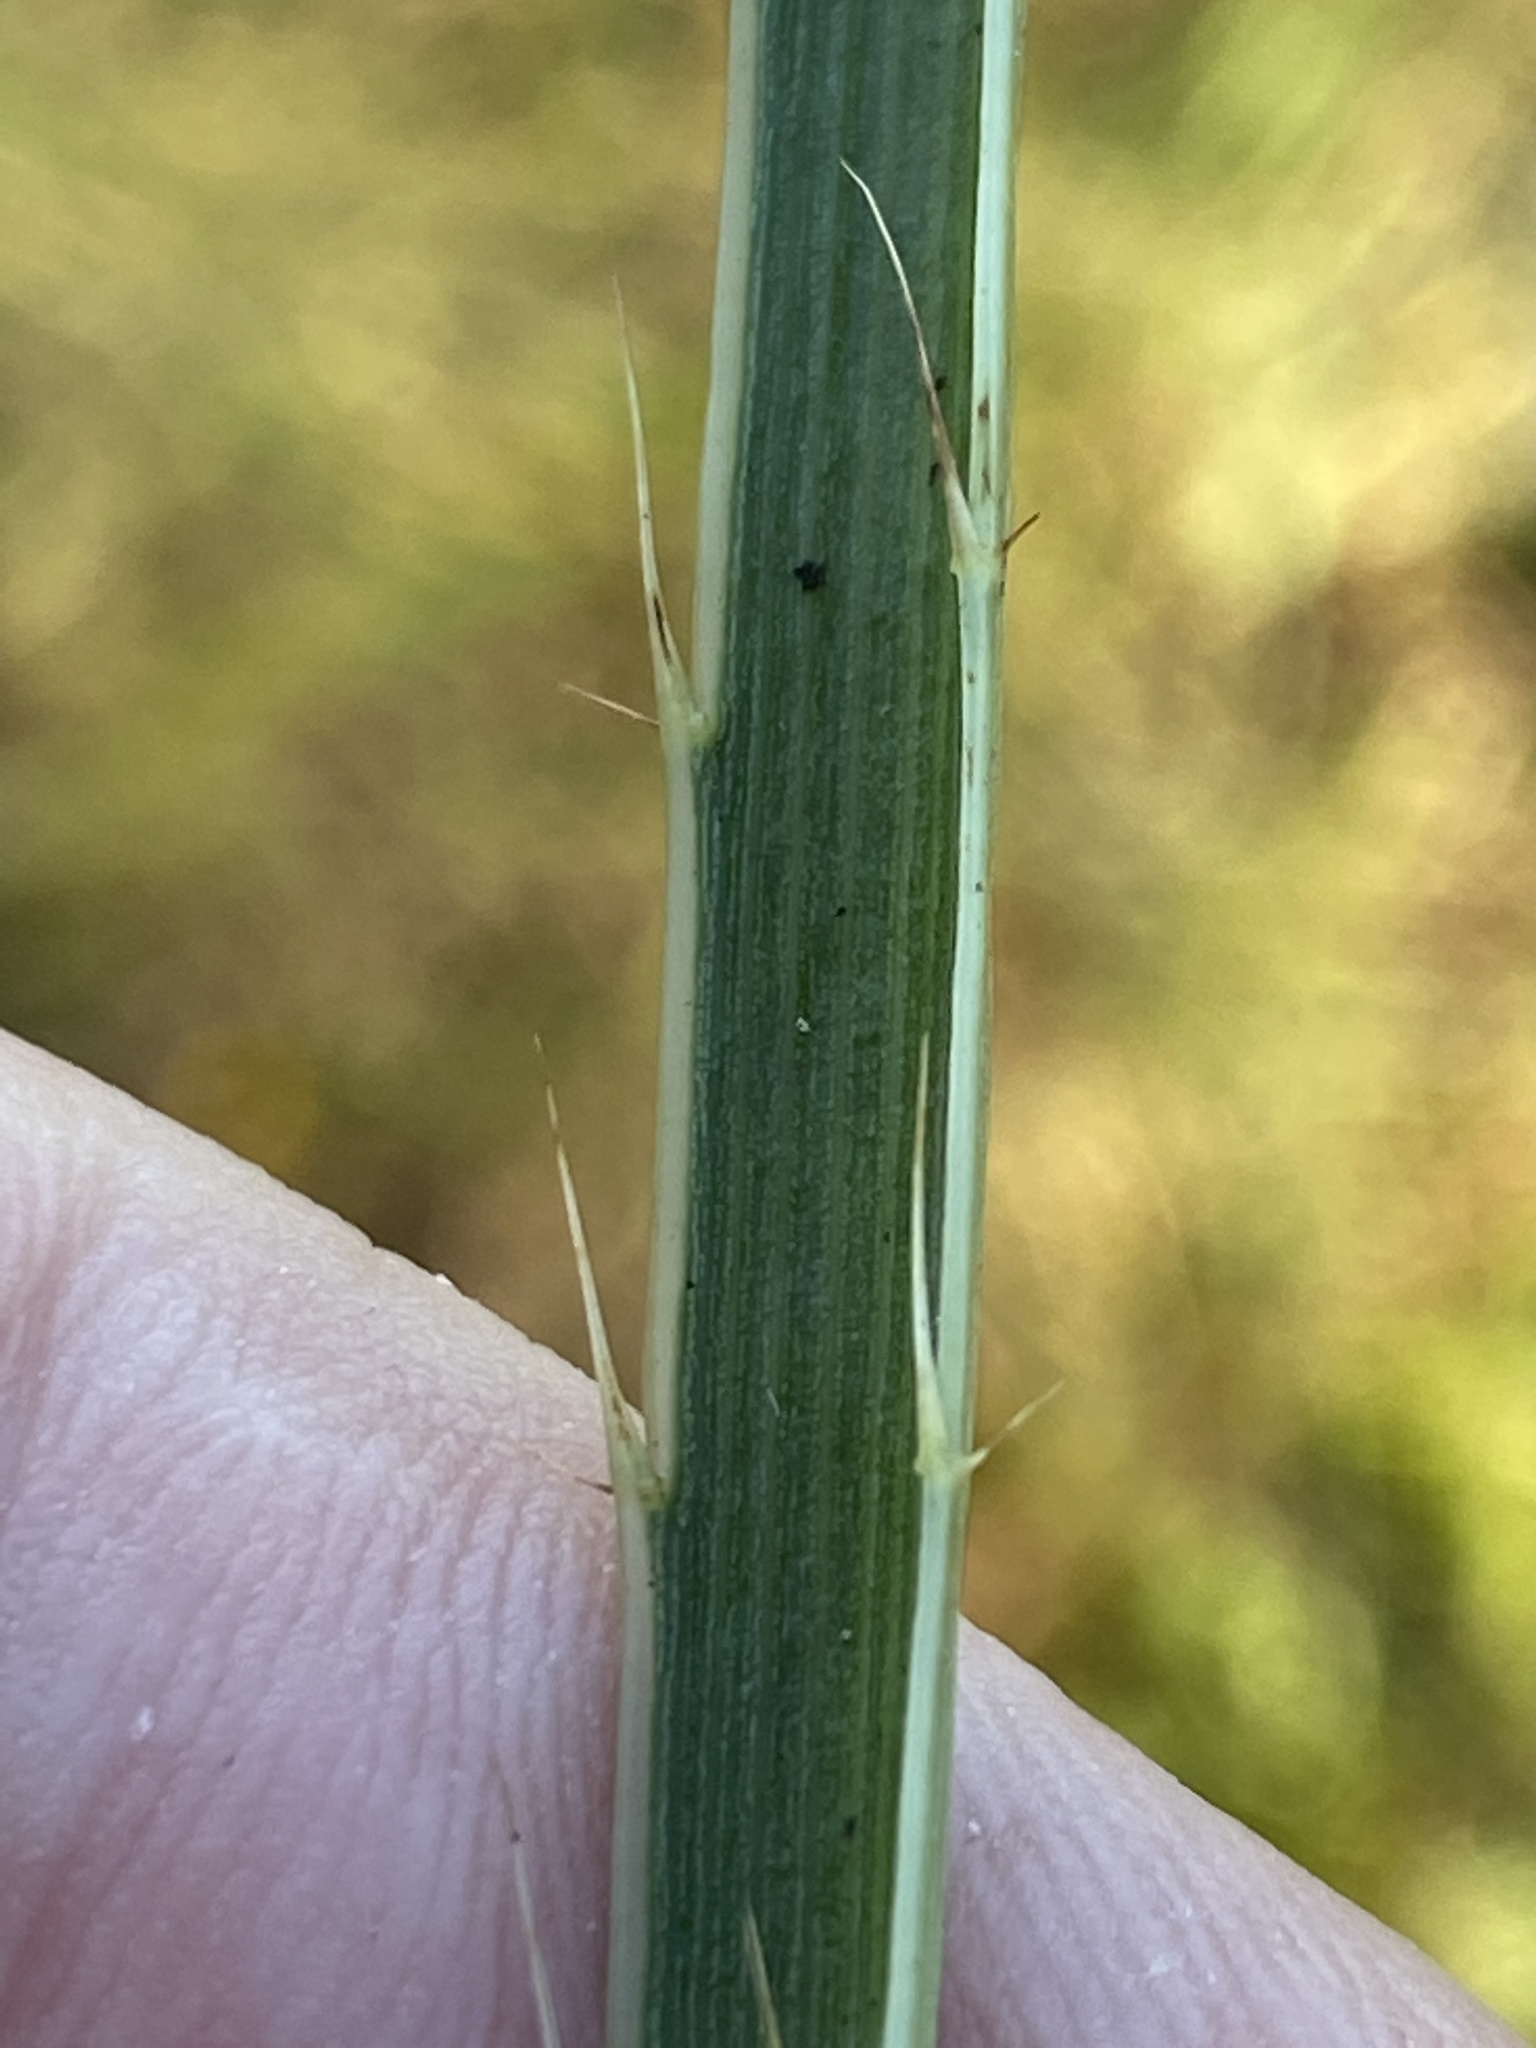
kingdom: Plantae
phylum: Tracheophyta
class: Magnoliopsida
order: Apiales
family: Apiaceae
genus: Eryngium
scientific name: Eryngium yuccifolium
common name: Button eryngo
